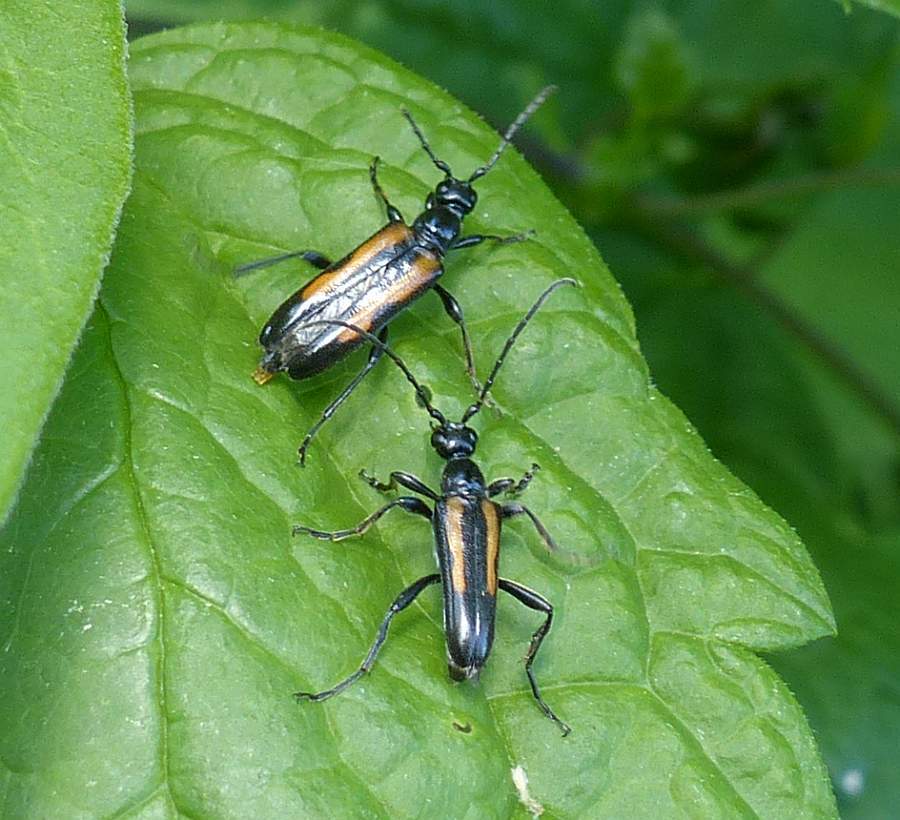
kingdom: Animalia
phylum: Arthropoda
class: Insecta
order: Coleoptera
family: Cerambycidae
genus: Strangalepta
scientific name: Strangalepta abbreviata
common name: Strangalepta flower longhorn beetle
